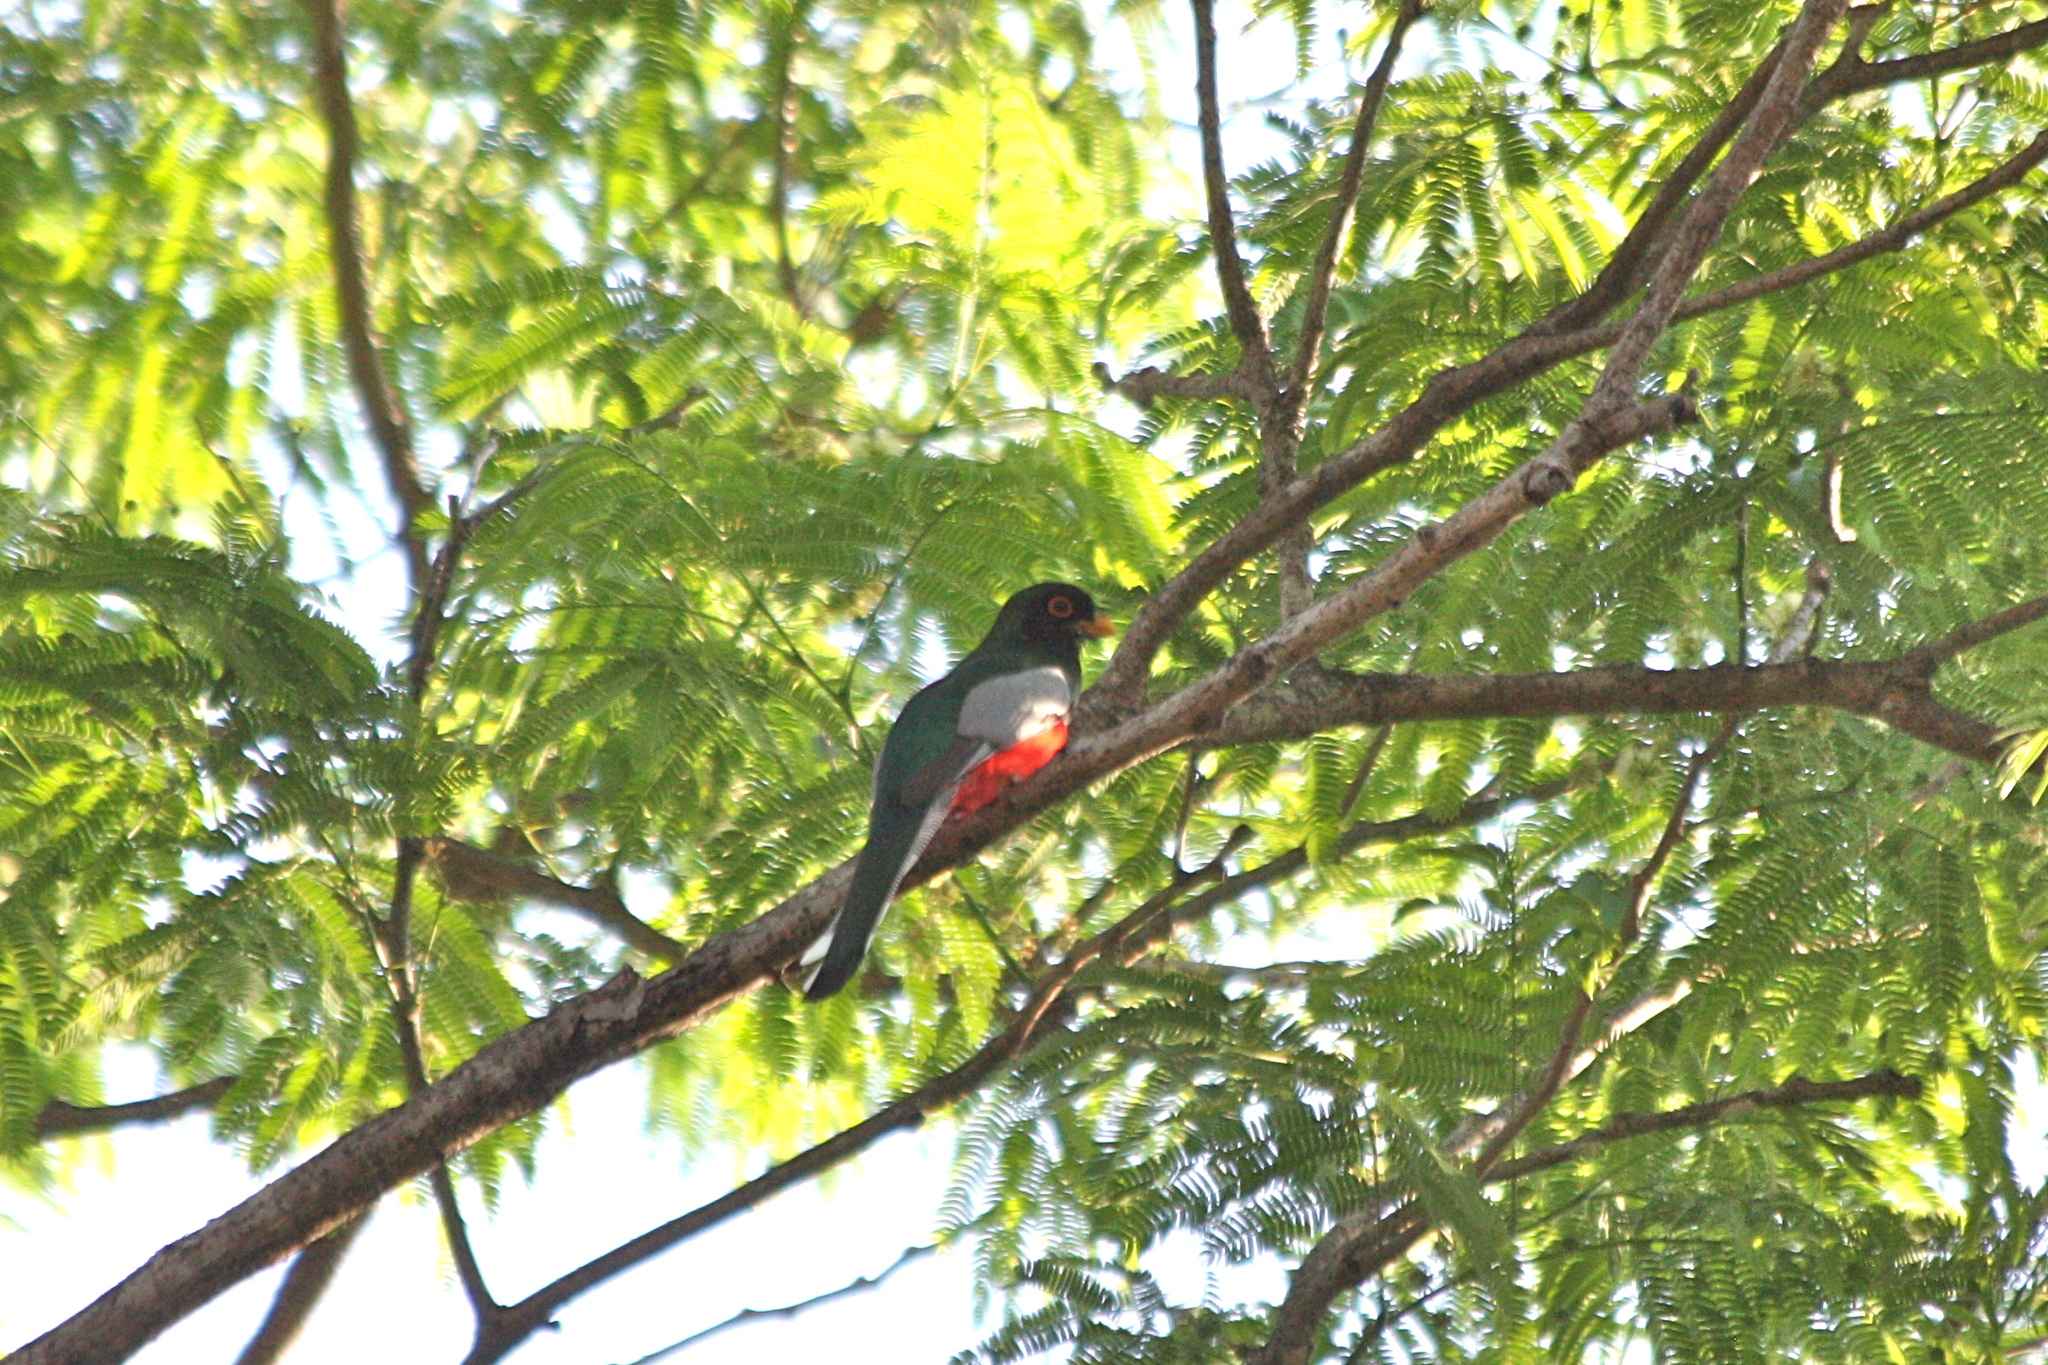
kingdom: Animalia
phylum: Chordata
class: Aves
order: Trogoniformes
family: Trogonidae
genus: Trogon
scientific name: Trogon elegans
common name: Elegant trogon
